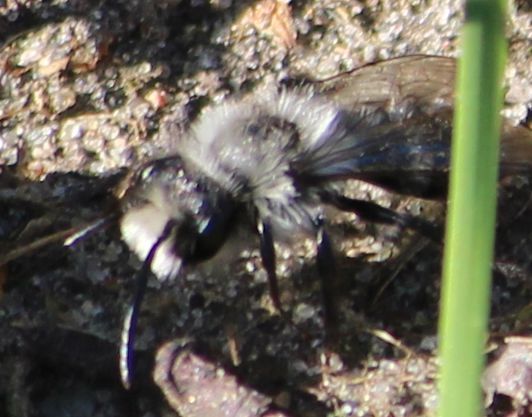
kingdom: Animalia
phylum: Arthropoda
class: Insecta
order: Hymenoptera
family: Andrenidae
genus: Andrena
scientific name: Andrena cineraria
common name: Ashy mining bee
